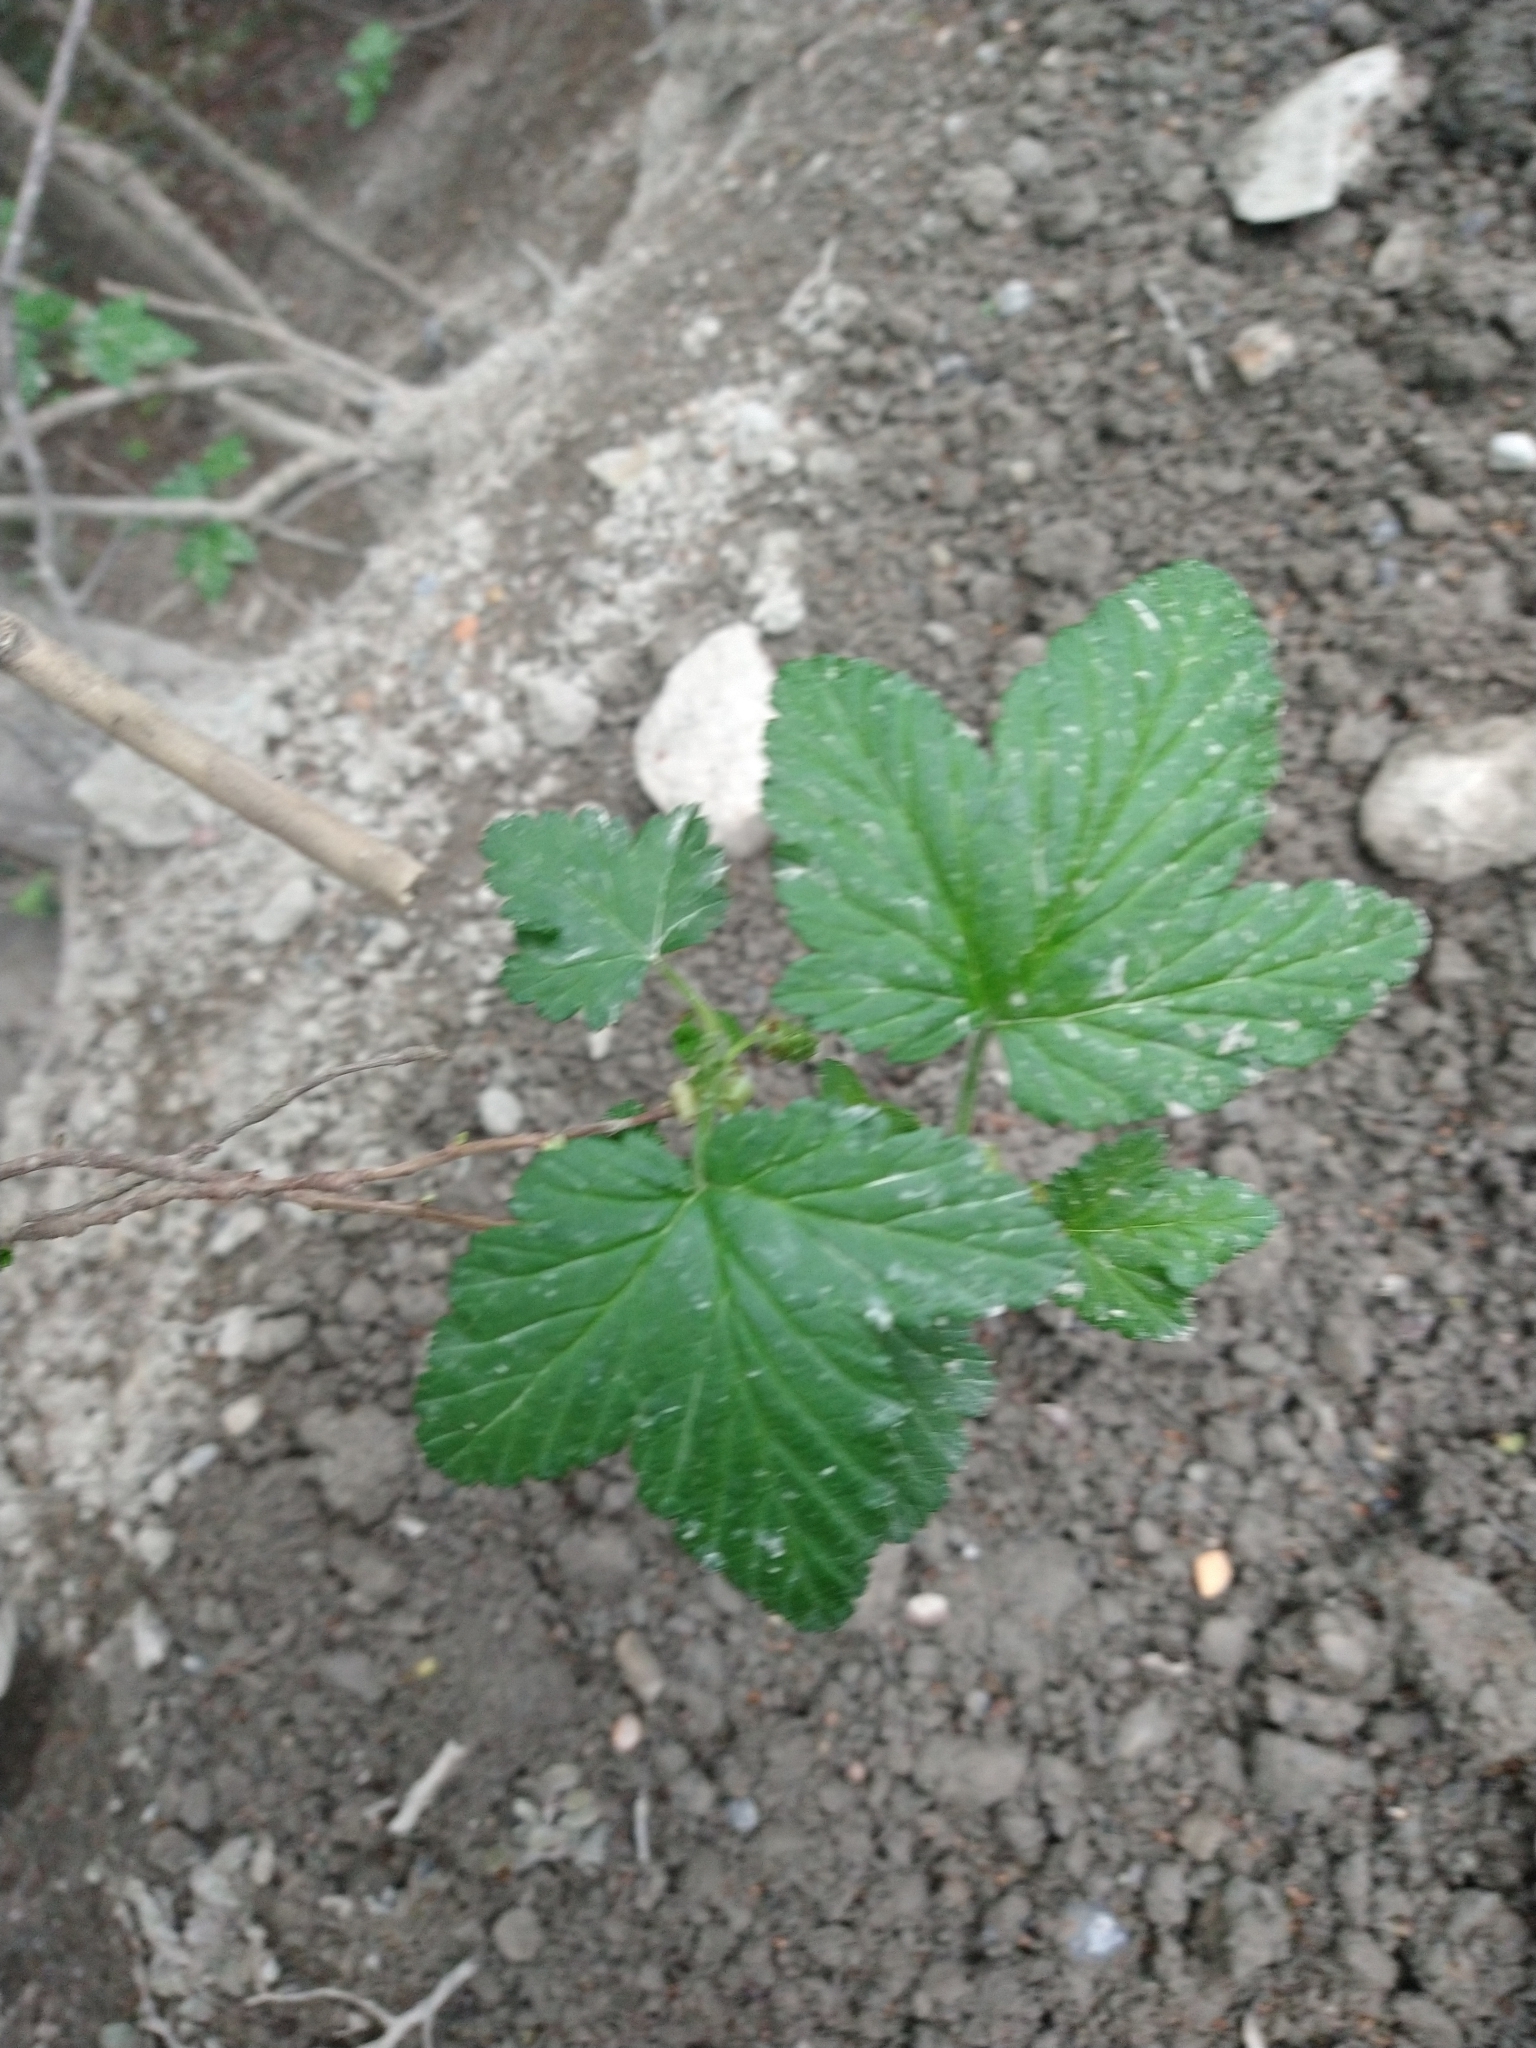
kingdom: Plantae
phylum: Tracheophyta
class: Magnoliopsida
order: Saxifragales
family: Grossulariaceae
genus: Ribes
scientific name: Ribes magellanicum
